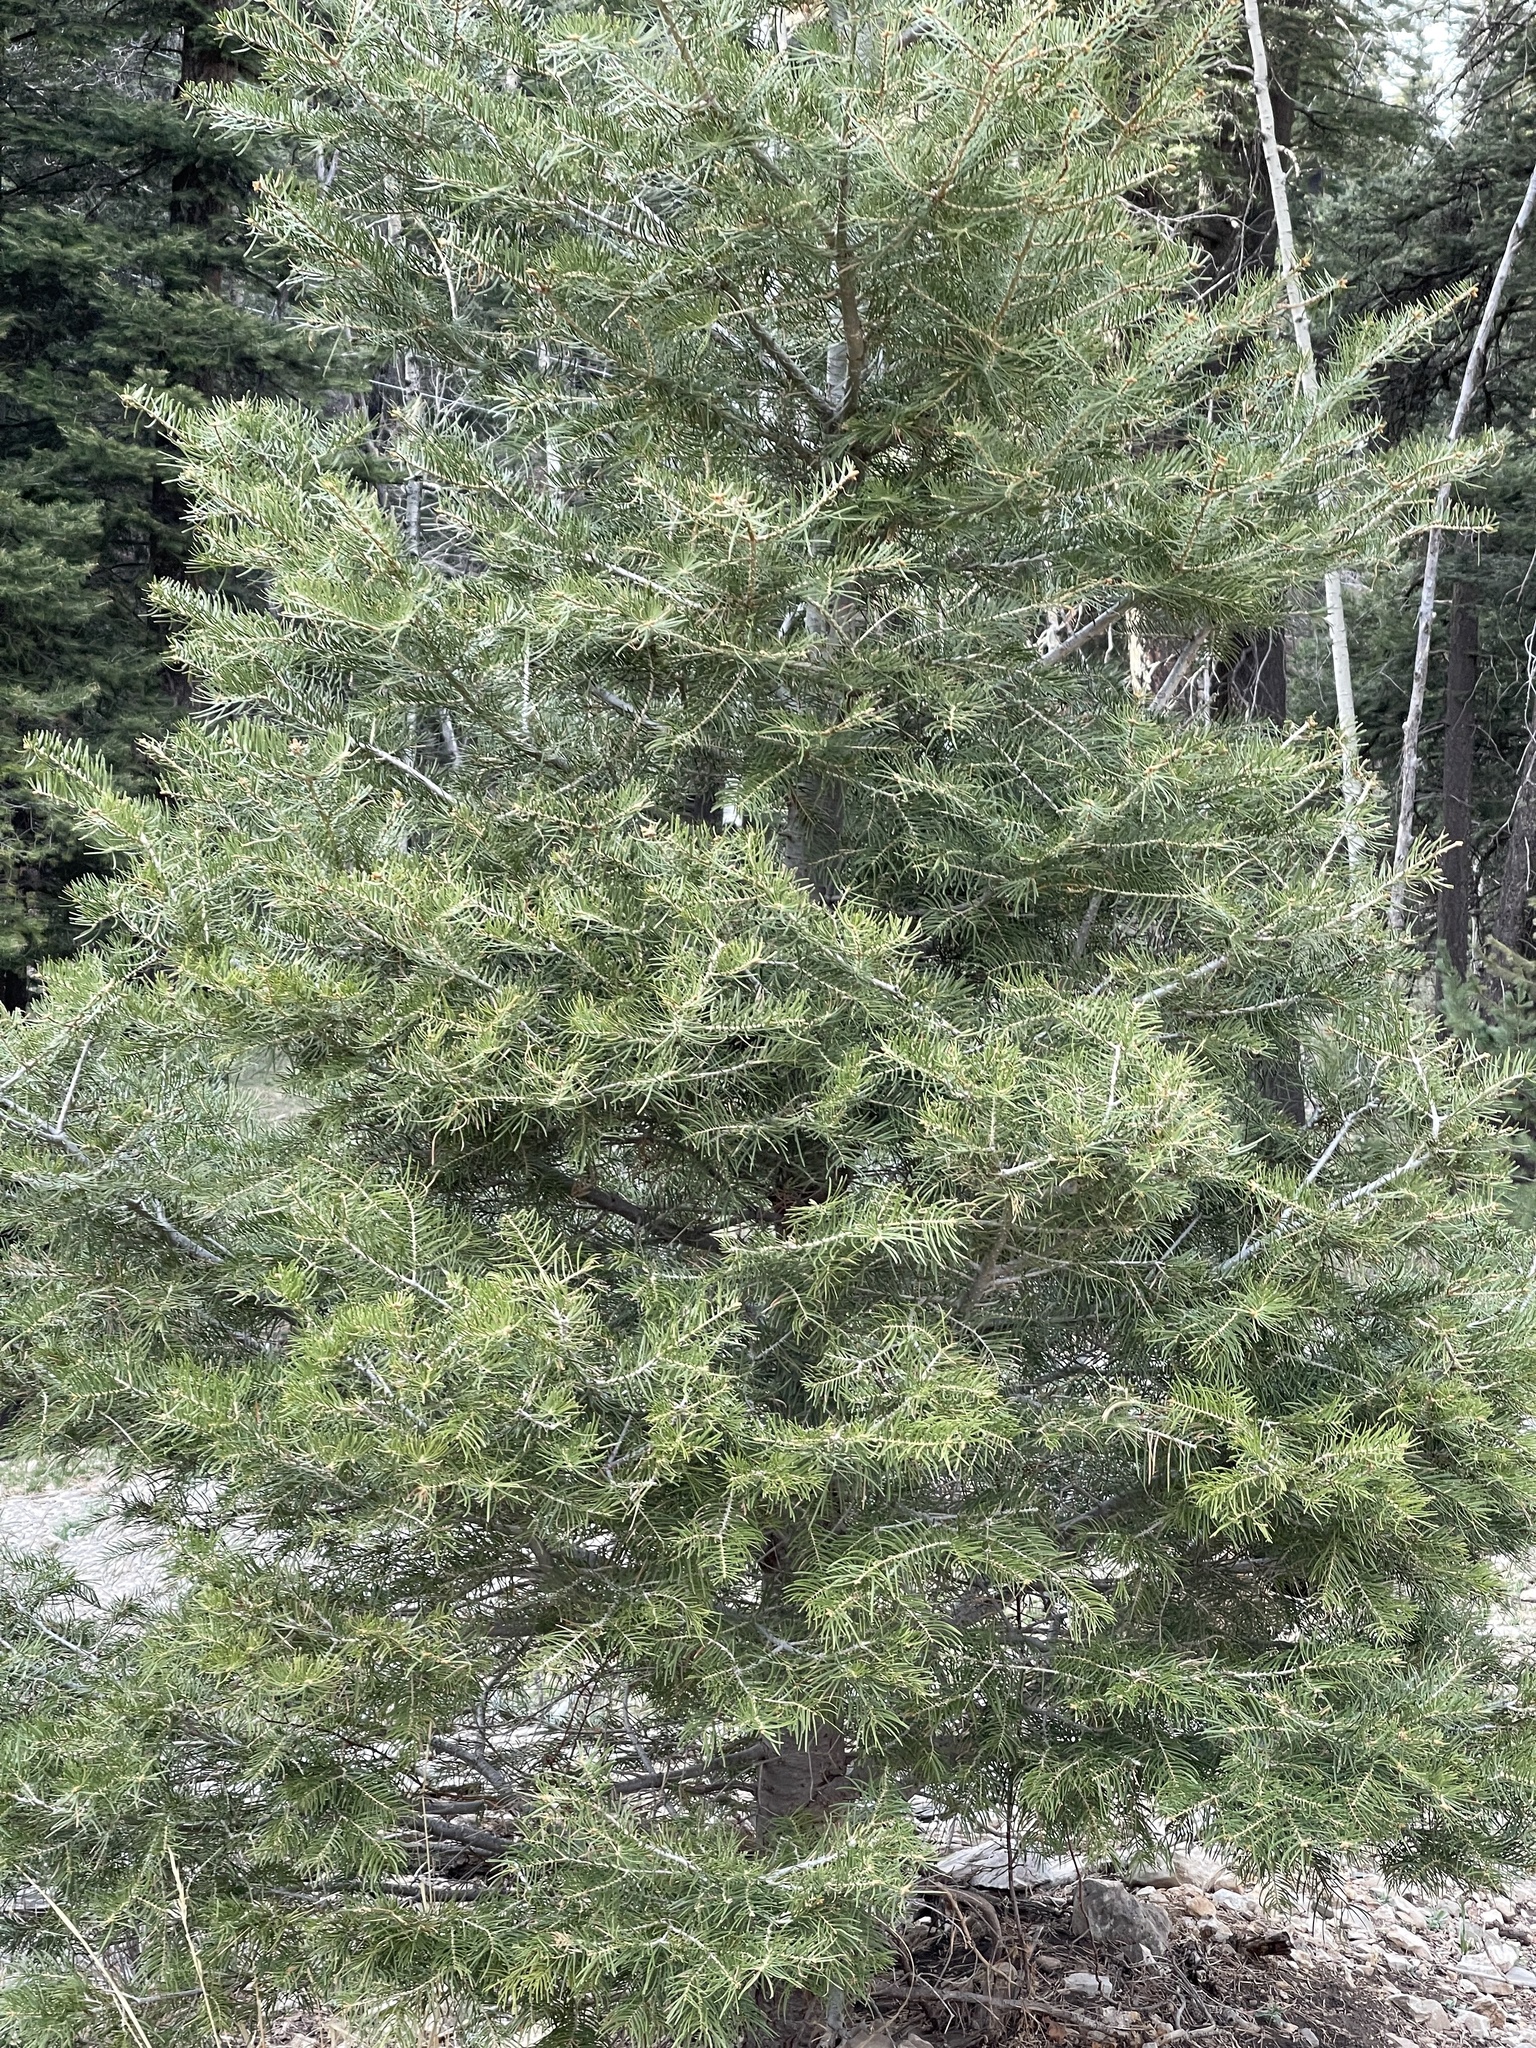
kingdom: Plantae
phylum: Tracheophyta
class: Pinopsida
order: Pinales
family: Pinaceae
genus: Abies
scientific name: Abies concolor
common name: Colorado fir
